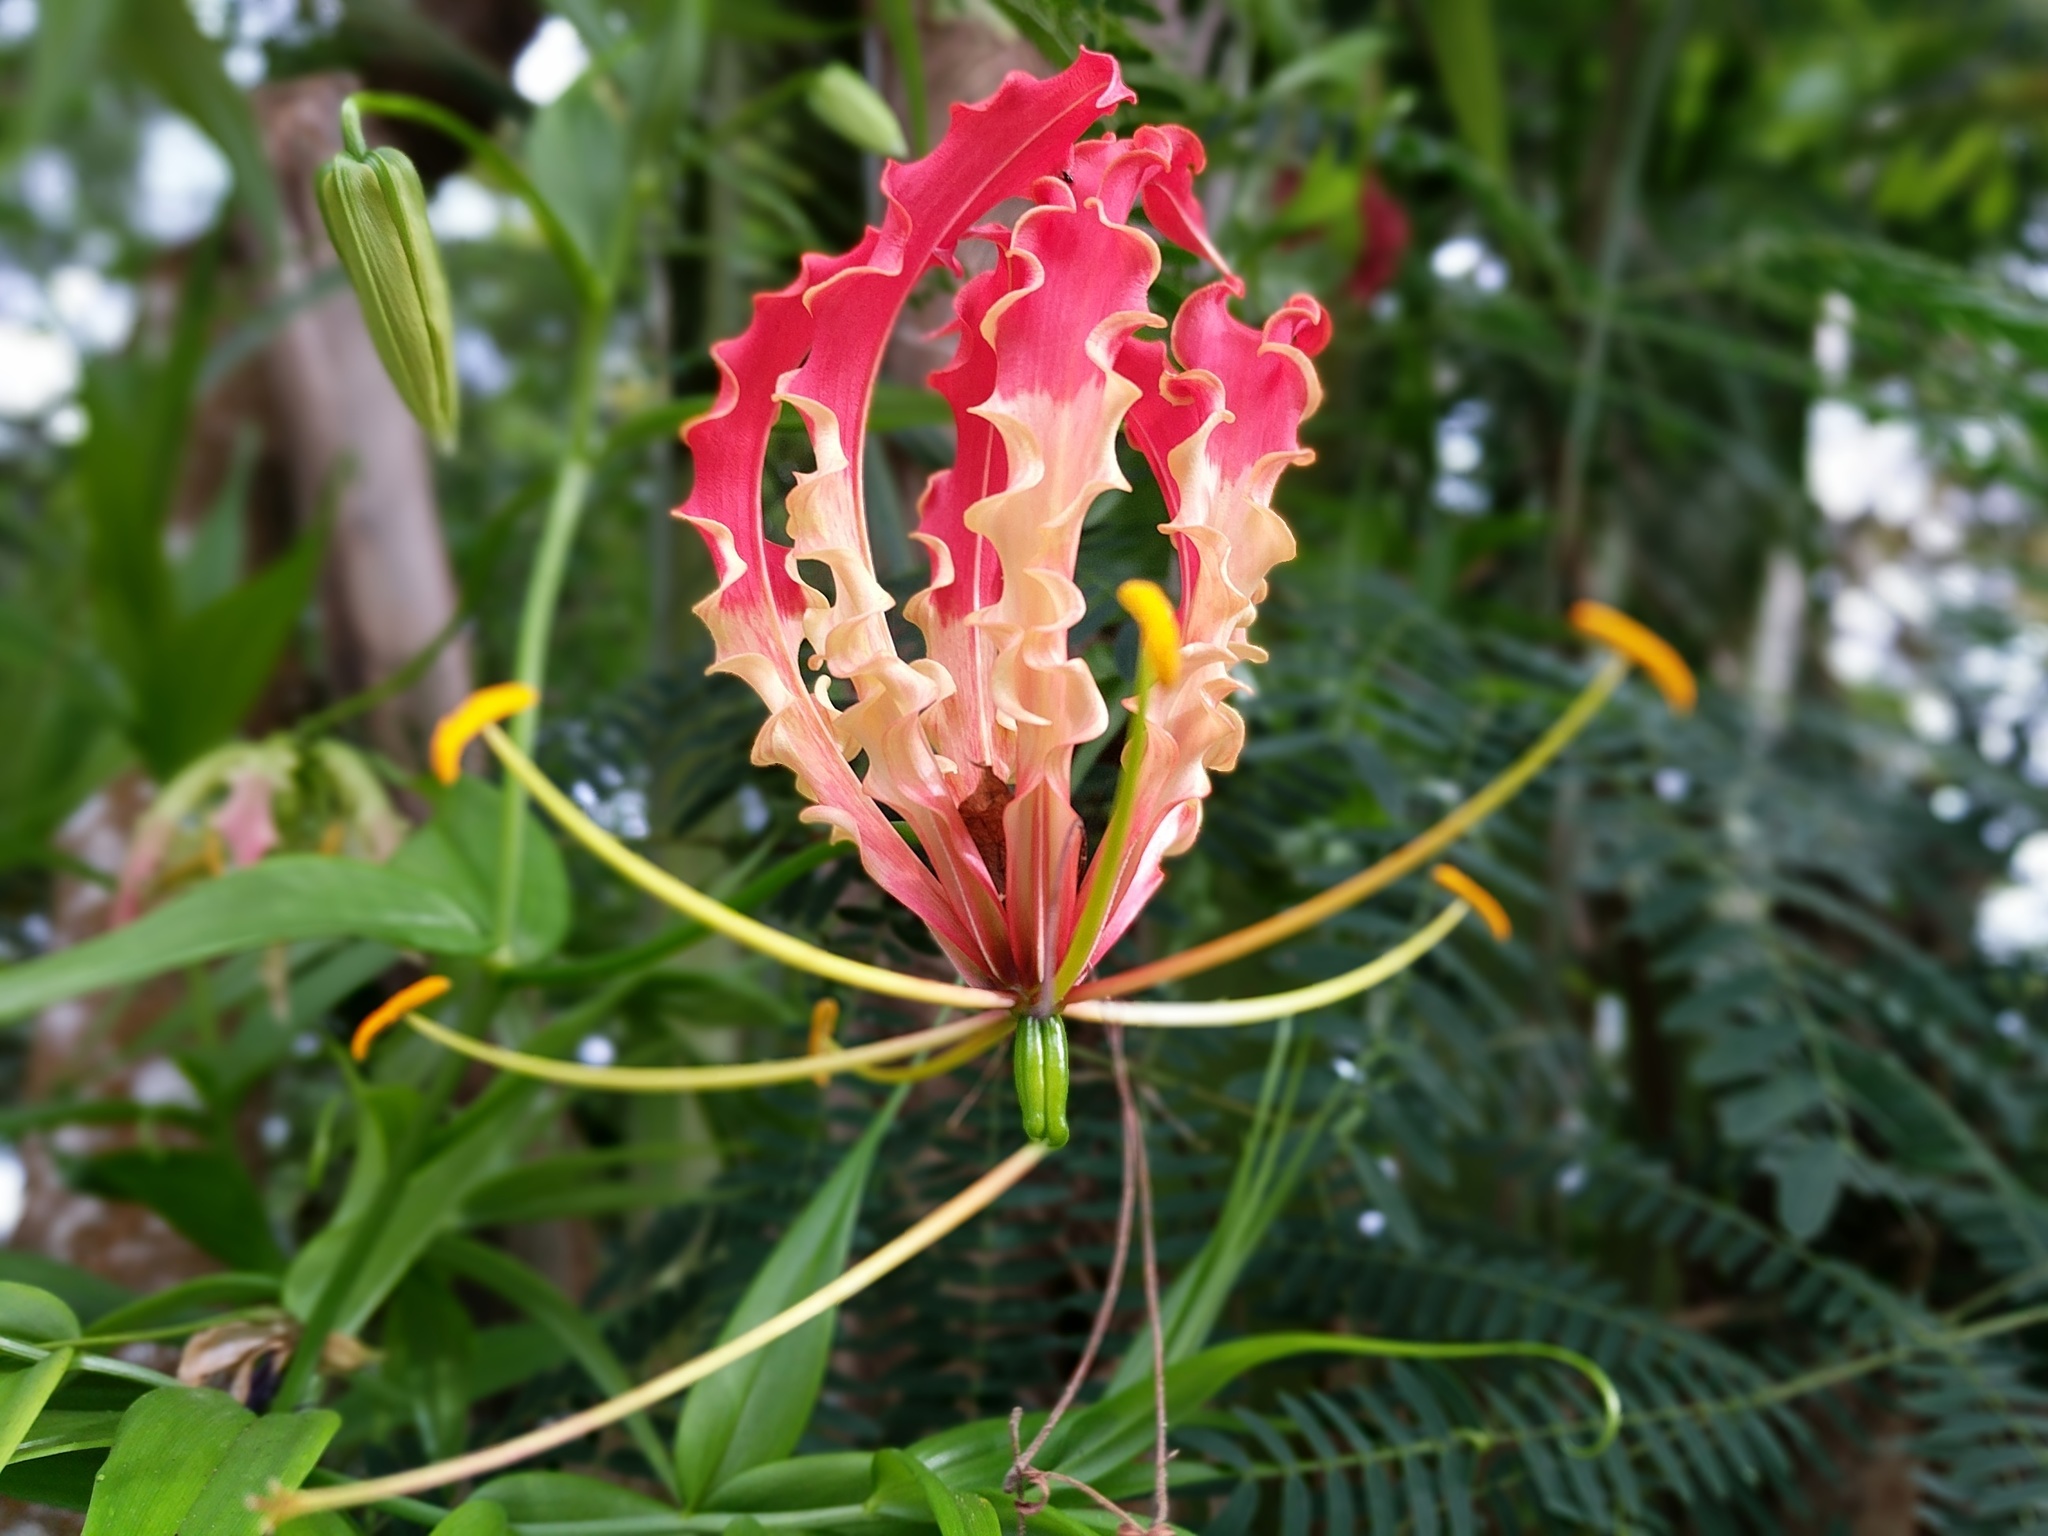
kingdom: Plantae
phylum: Tracheophyta
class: Liliopsida
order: Liliales
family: Colchicaceae
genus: Gloriosa
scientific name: Gloriosa superba
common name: Flame lily
